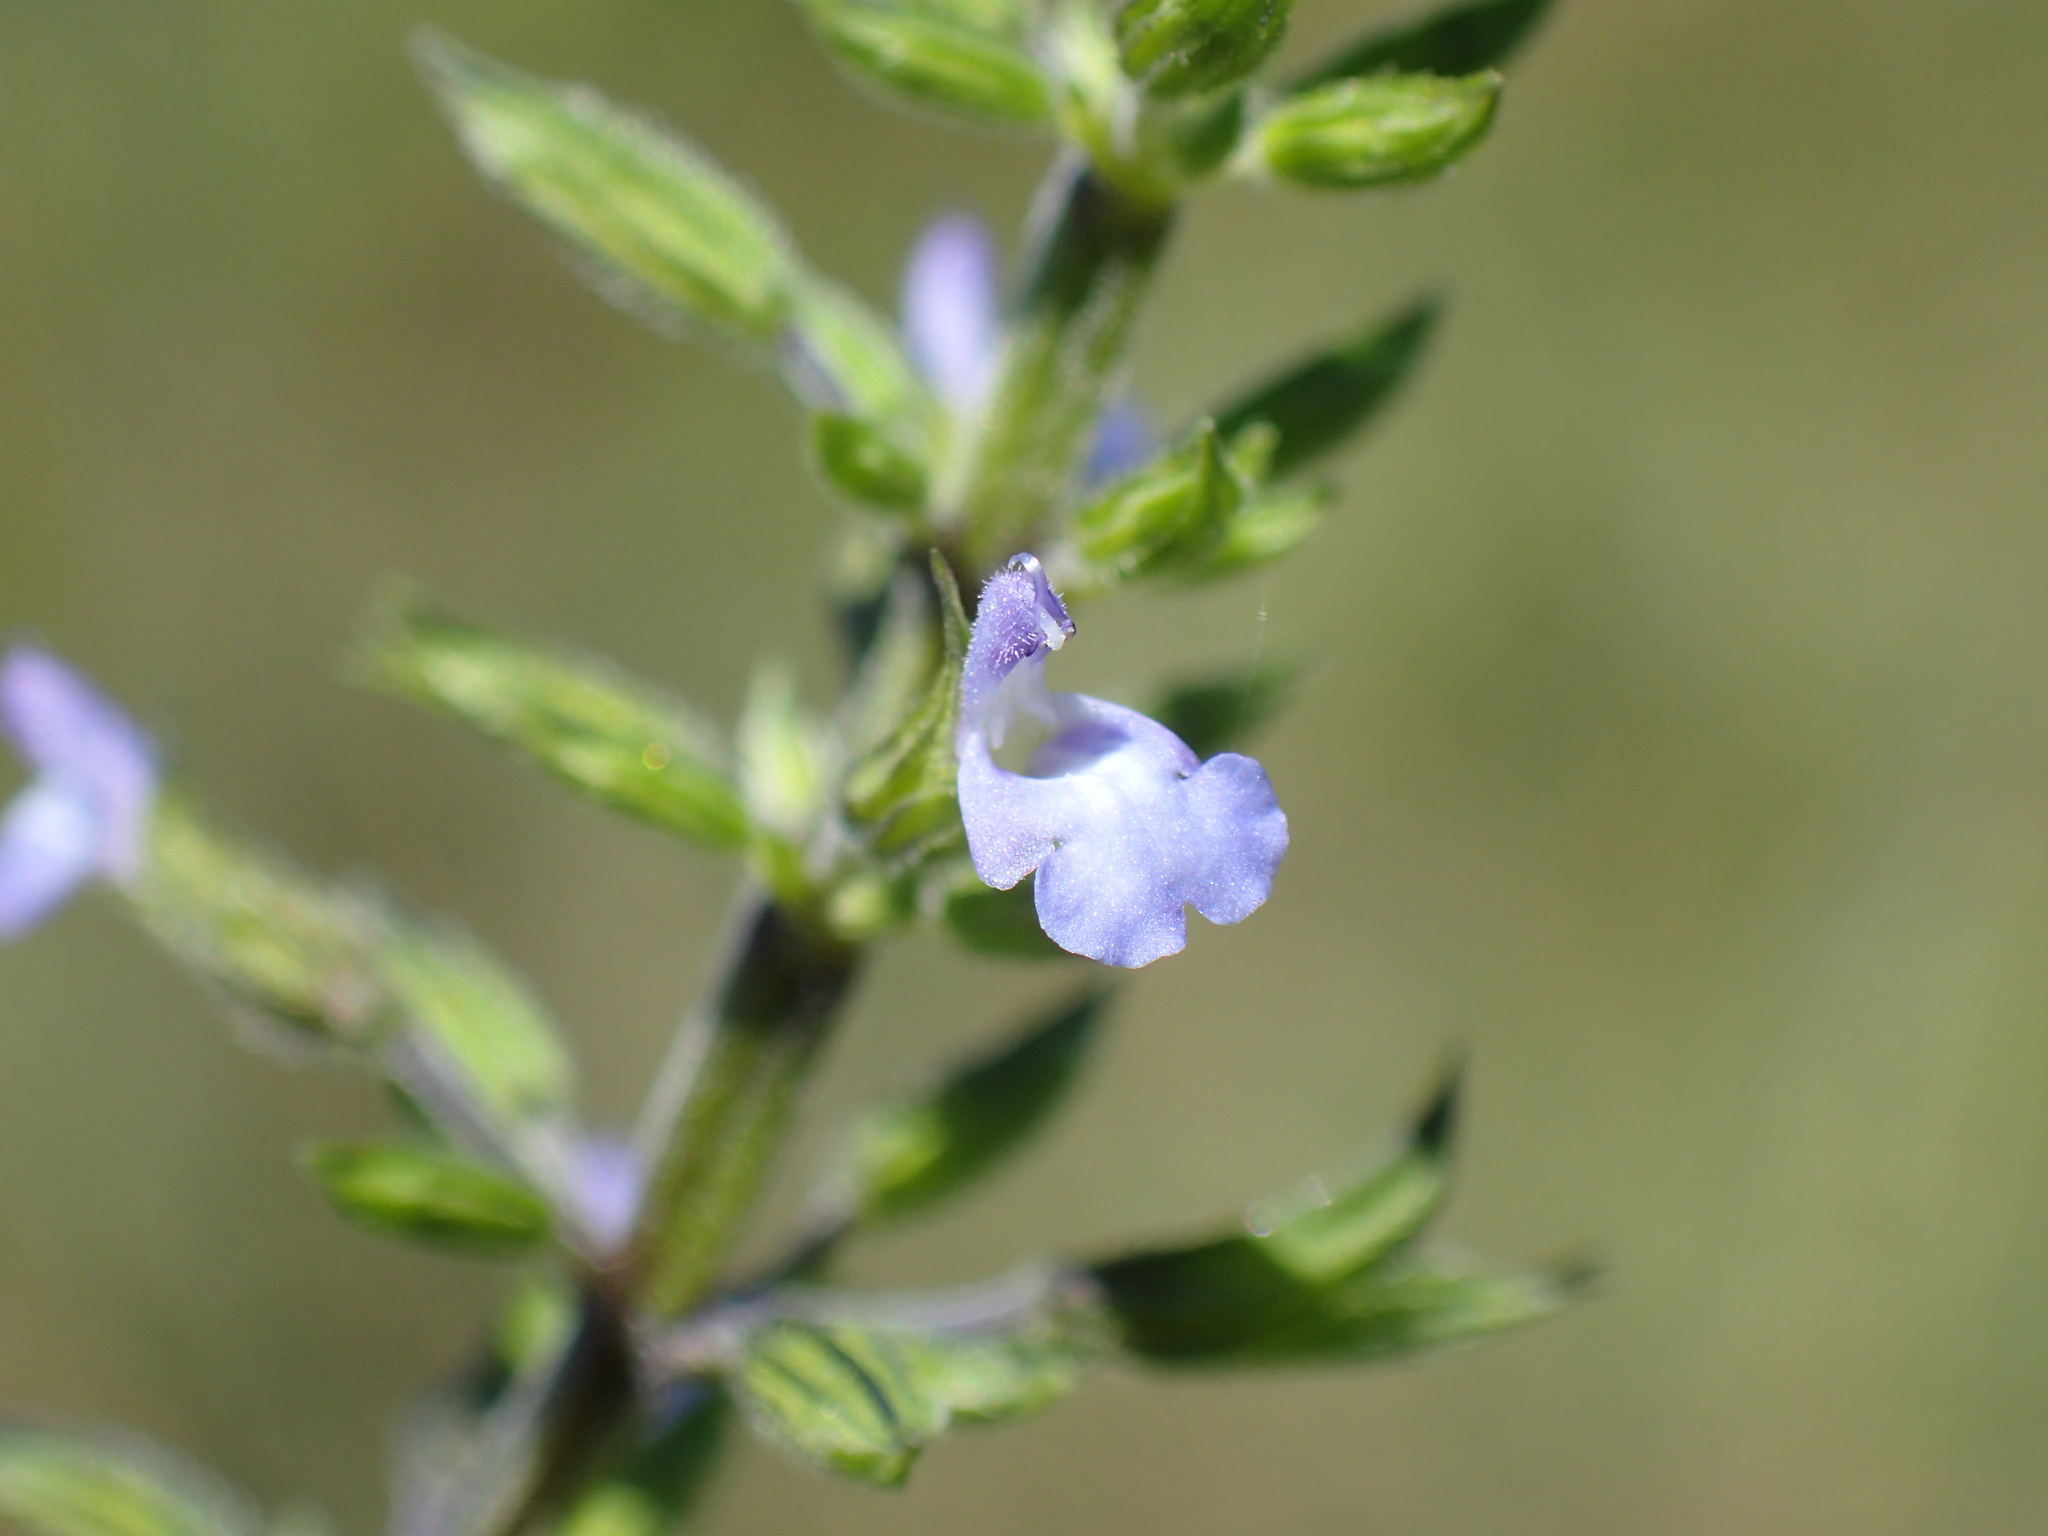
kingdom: Plantae
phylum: Tracheophyta
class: Magnoliopsida
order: Lamiales
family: Lamiaceae
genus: Salvia
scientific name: Salvia tiliifolia
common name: Lindenleaf sage
